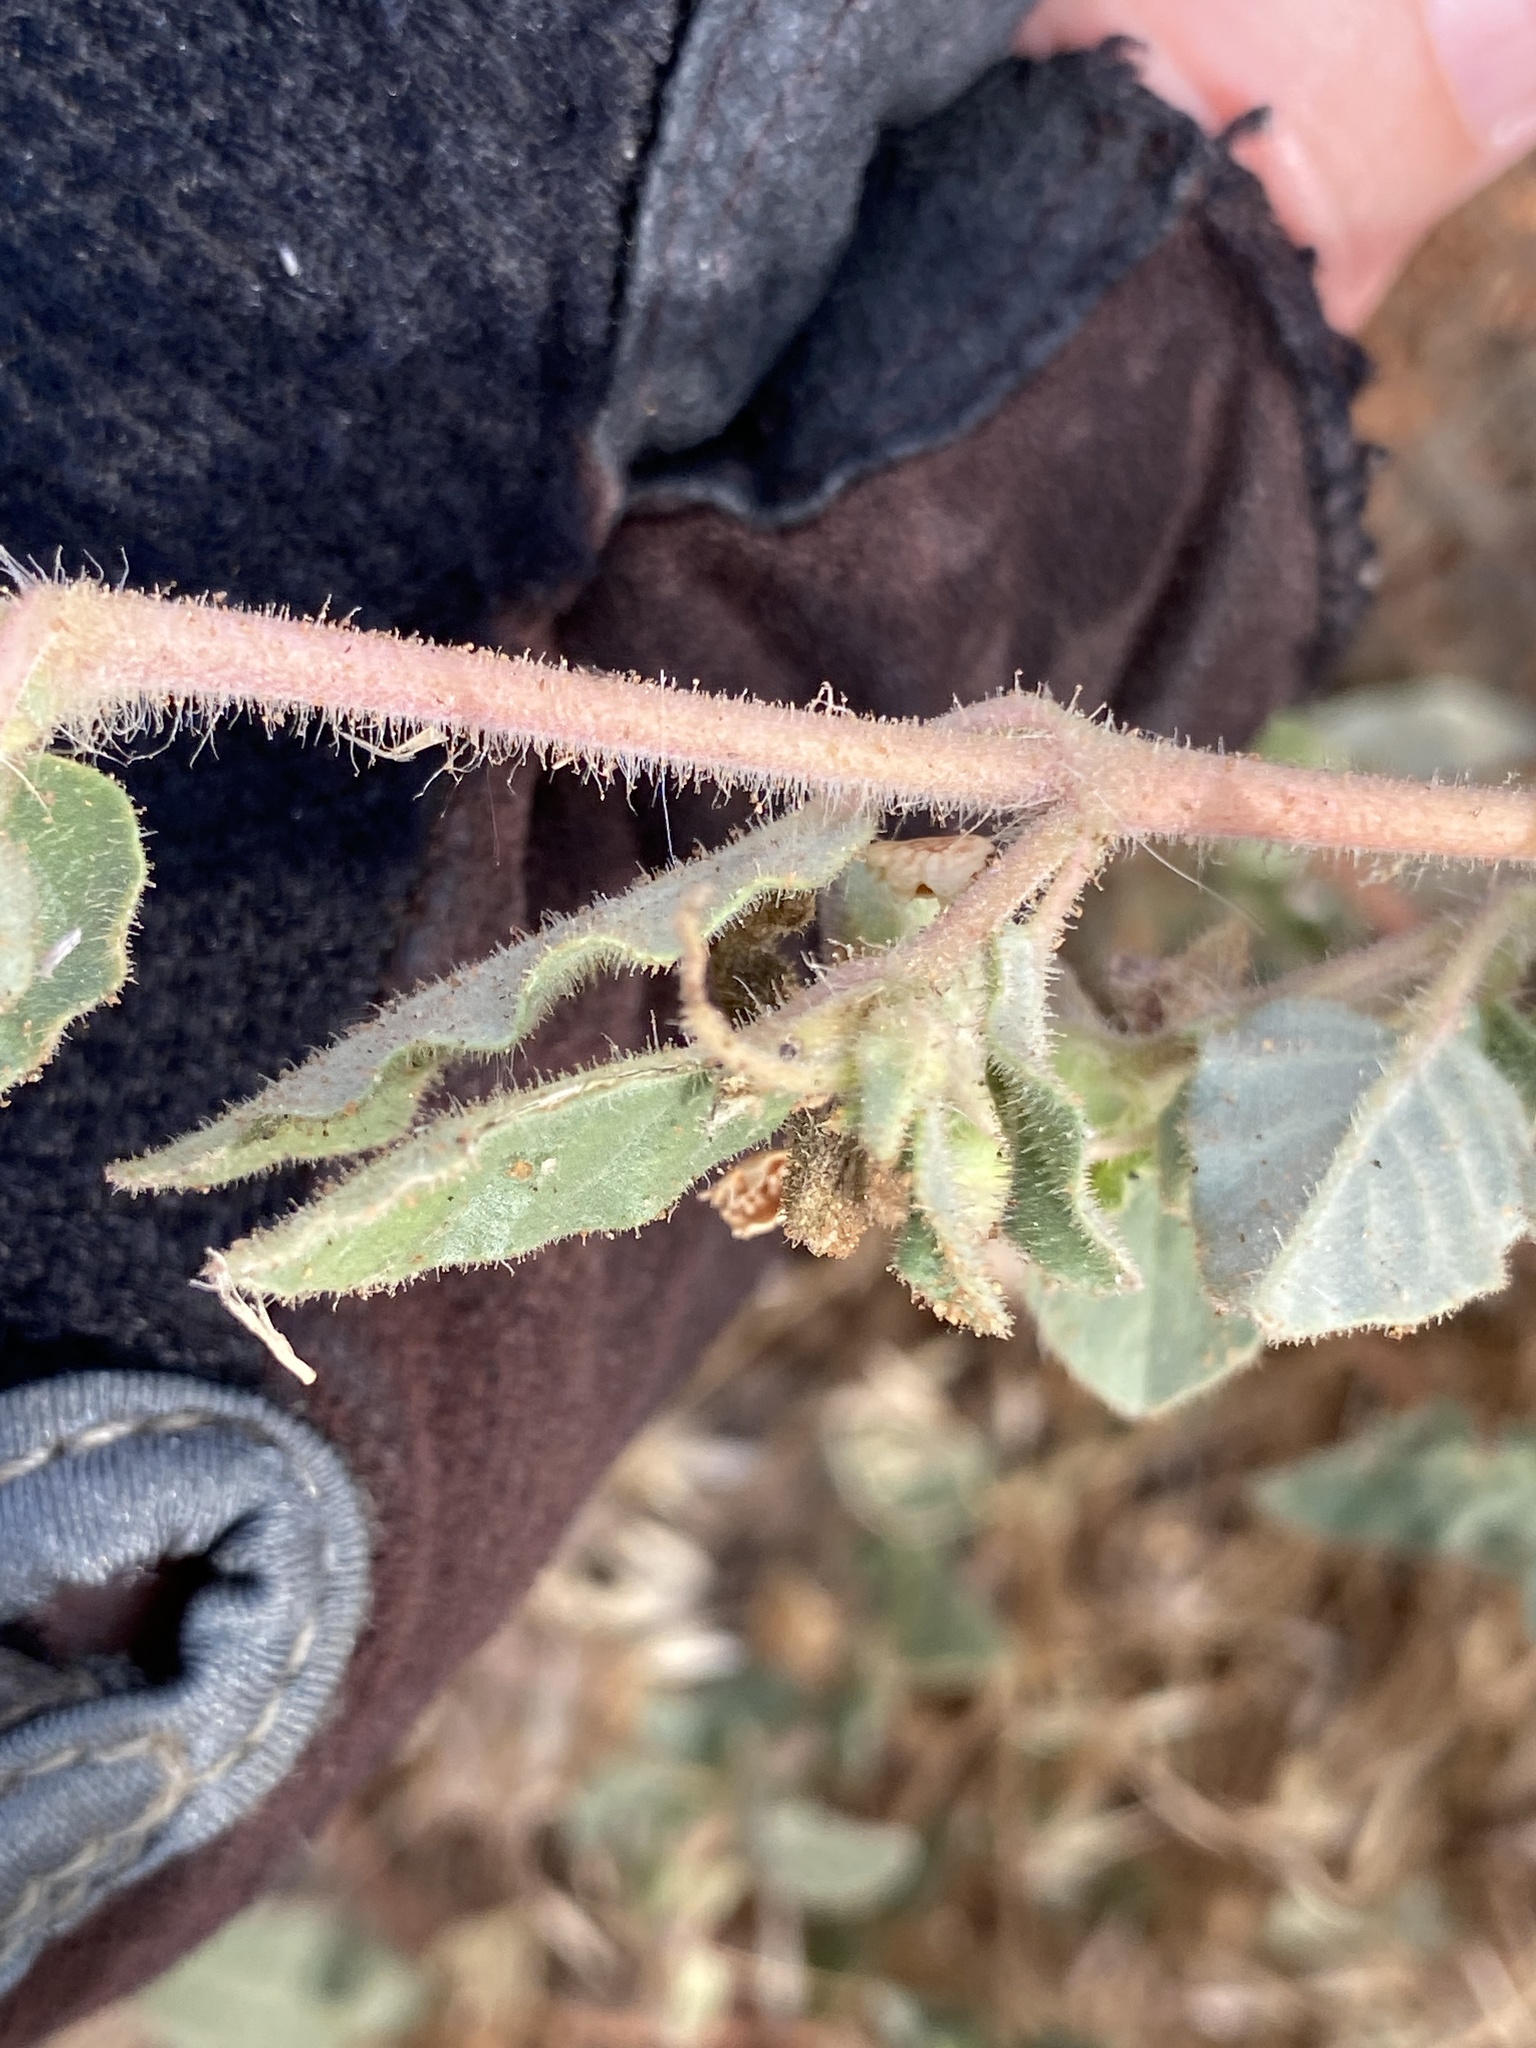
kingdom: Plantae
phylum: Tracheophyta
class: Magnoliopsida
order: Caryophyllales
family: Nyctaginaceae
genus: Allionia
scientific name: Allionia incarnata
